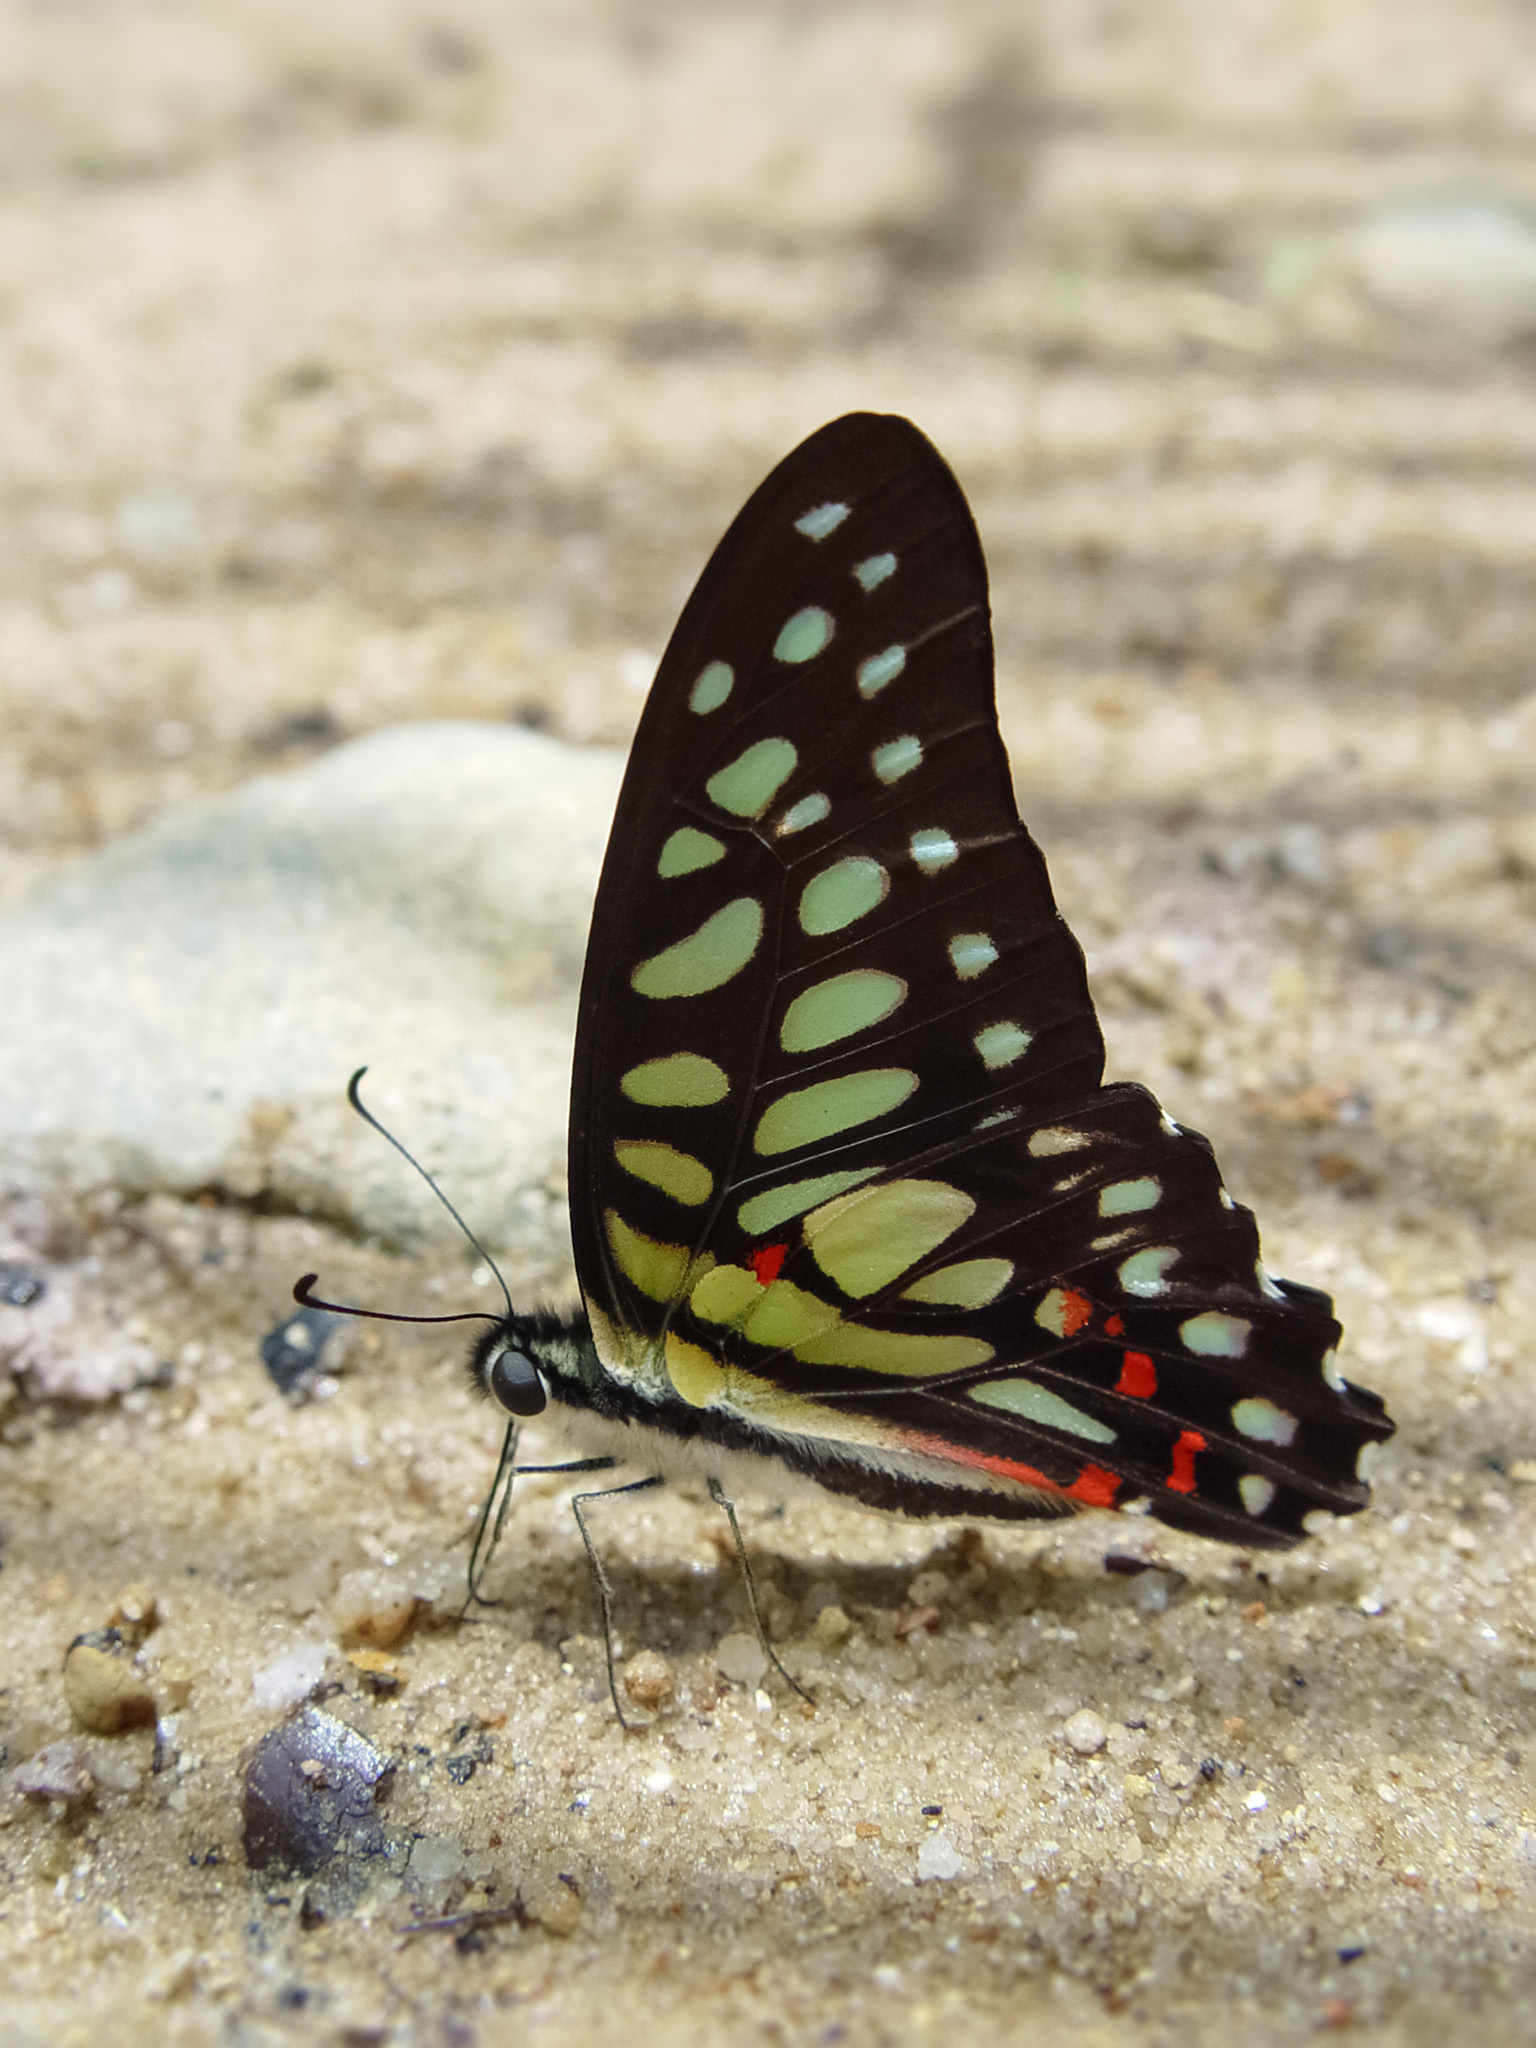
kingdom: Animalia
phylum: Arthropoda
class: Insecta
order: Lepidoptera
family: Papilionidae
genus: Graphium
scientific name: Graphium arycles
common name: Spotted jay
